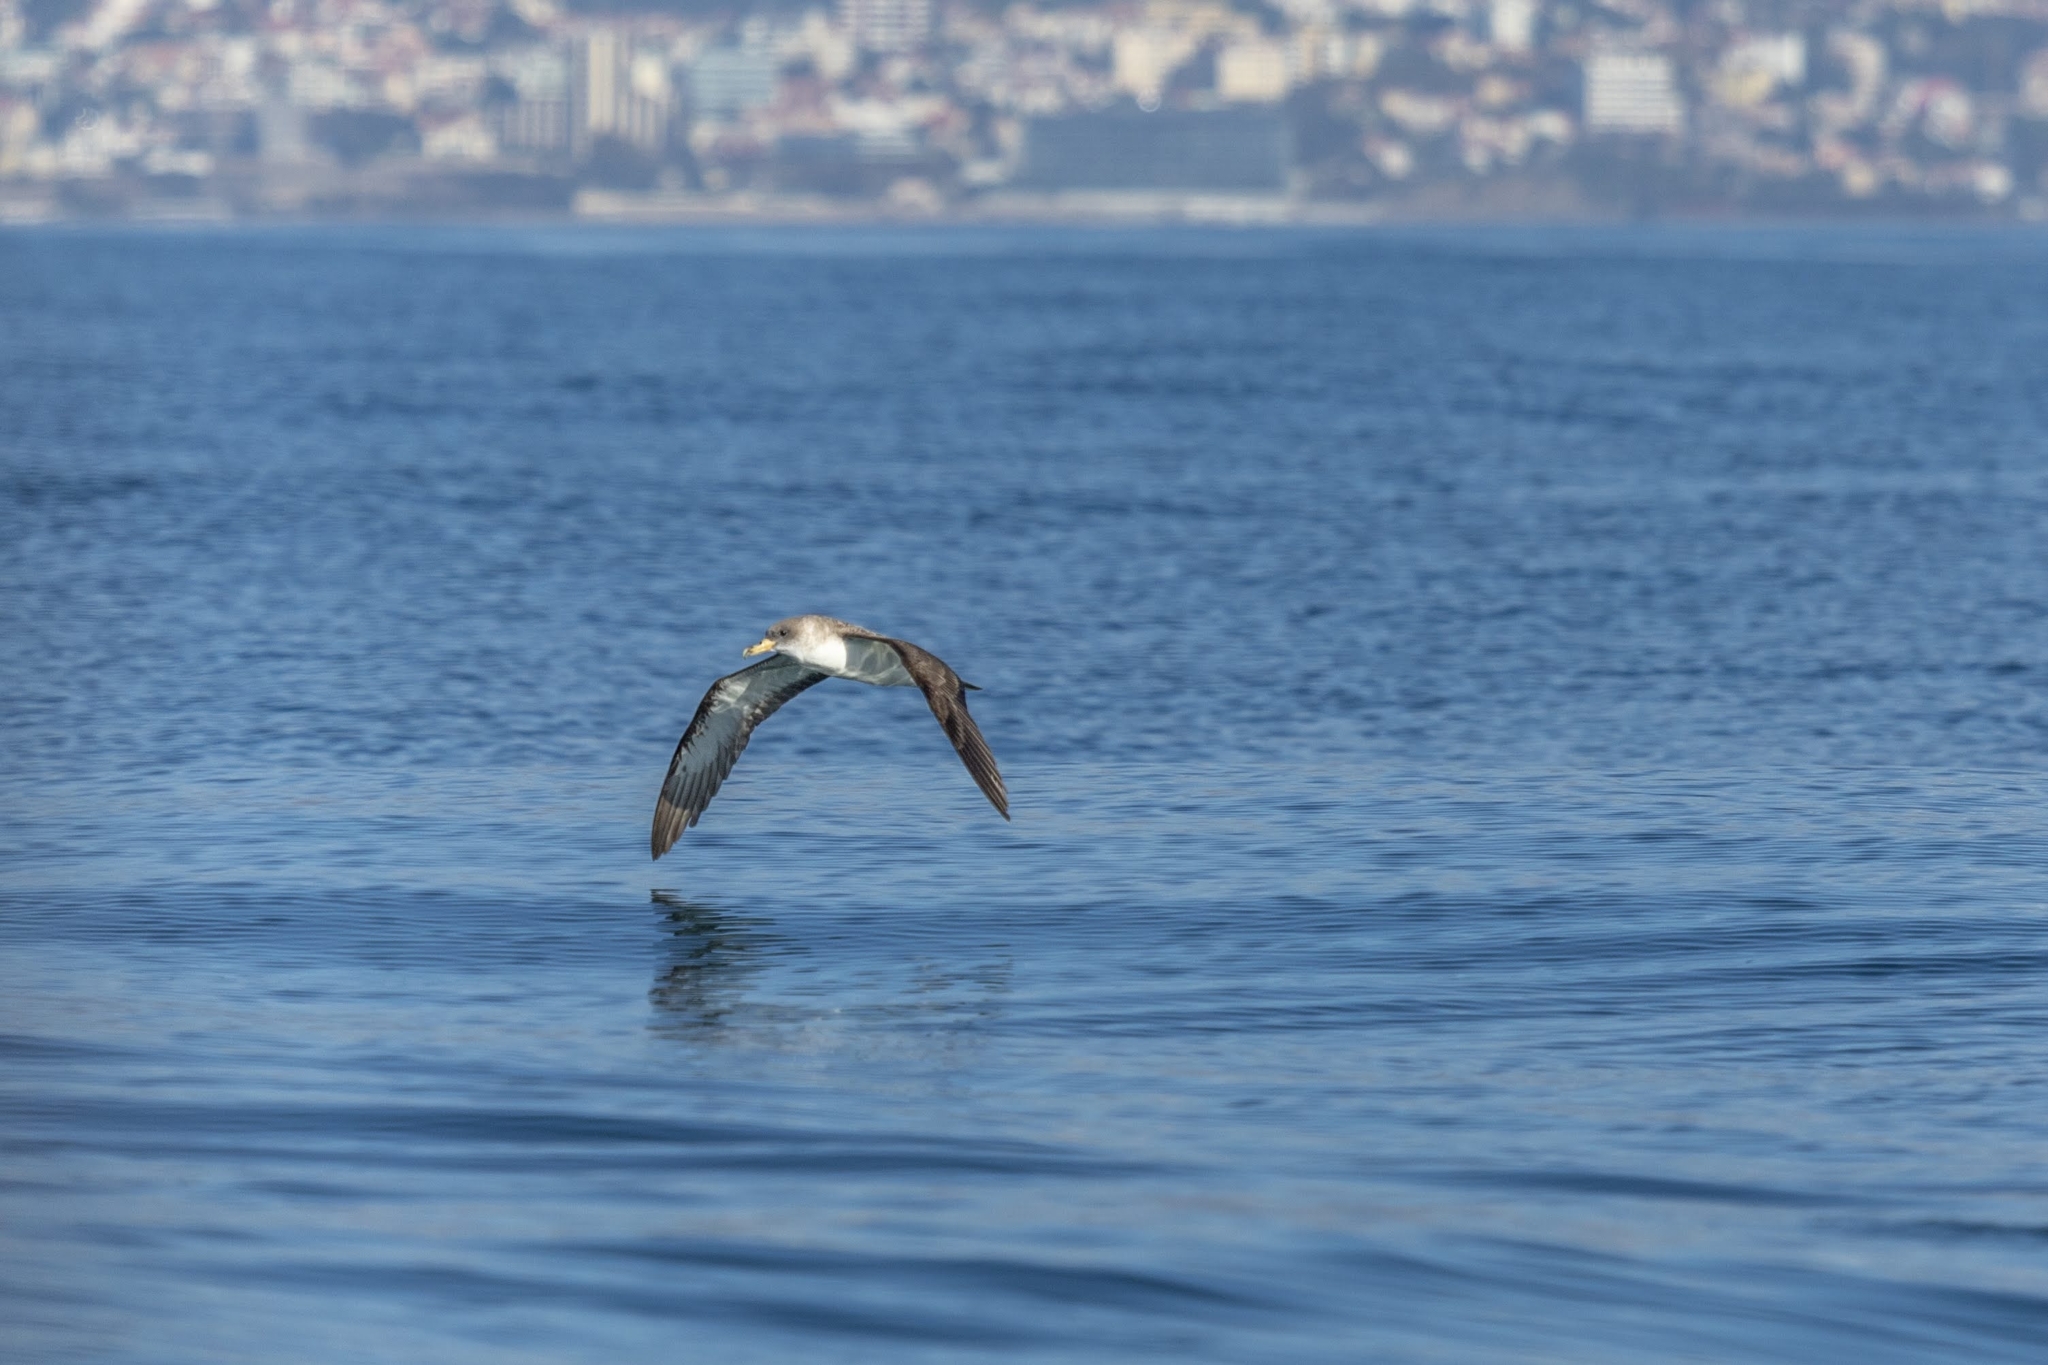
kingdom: Animalia
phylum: Chordata
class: Aves
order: Procellariiformes
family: Procellariidae
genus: Calonectris
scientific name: Calonectris diomedea
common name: Cory's shearwater
